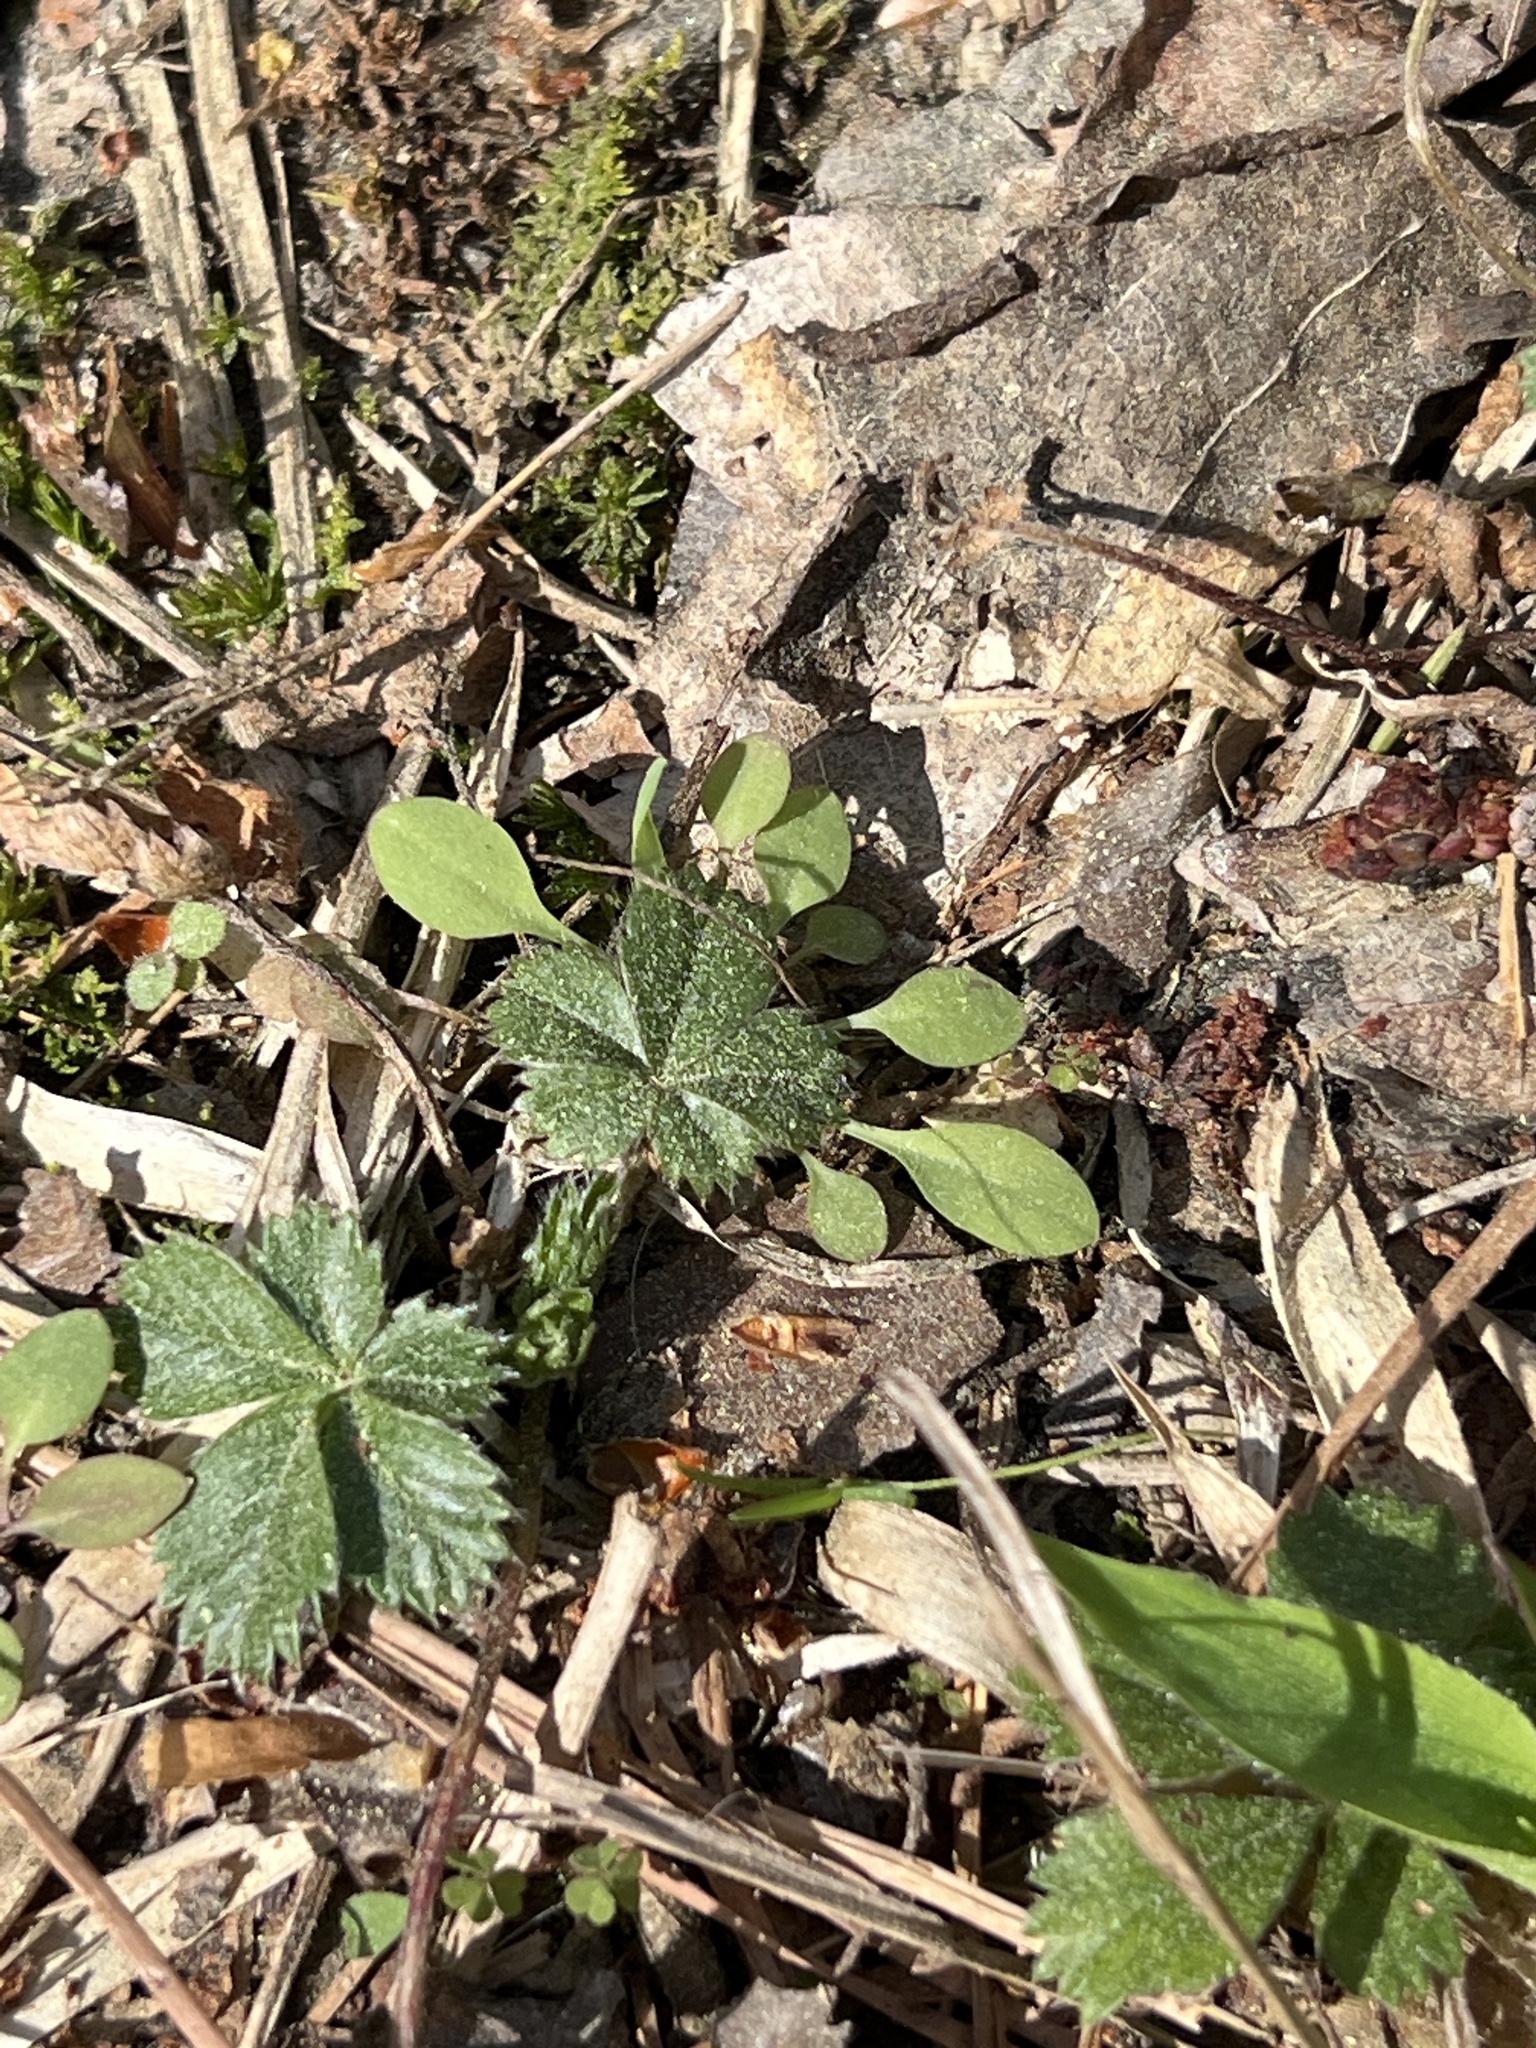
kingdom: Plantae
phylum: Tracheophyta
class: Magnoliopsida
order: Rosales
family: Rosaceae
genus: Potentilla
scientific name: Potentilla canadensis
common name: Canada cinquefoil
